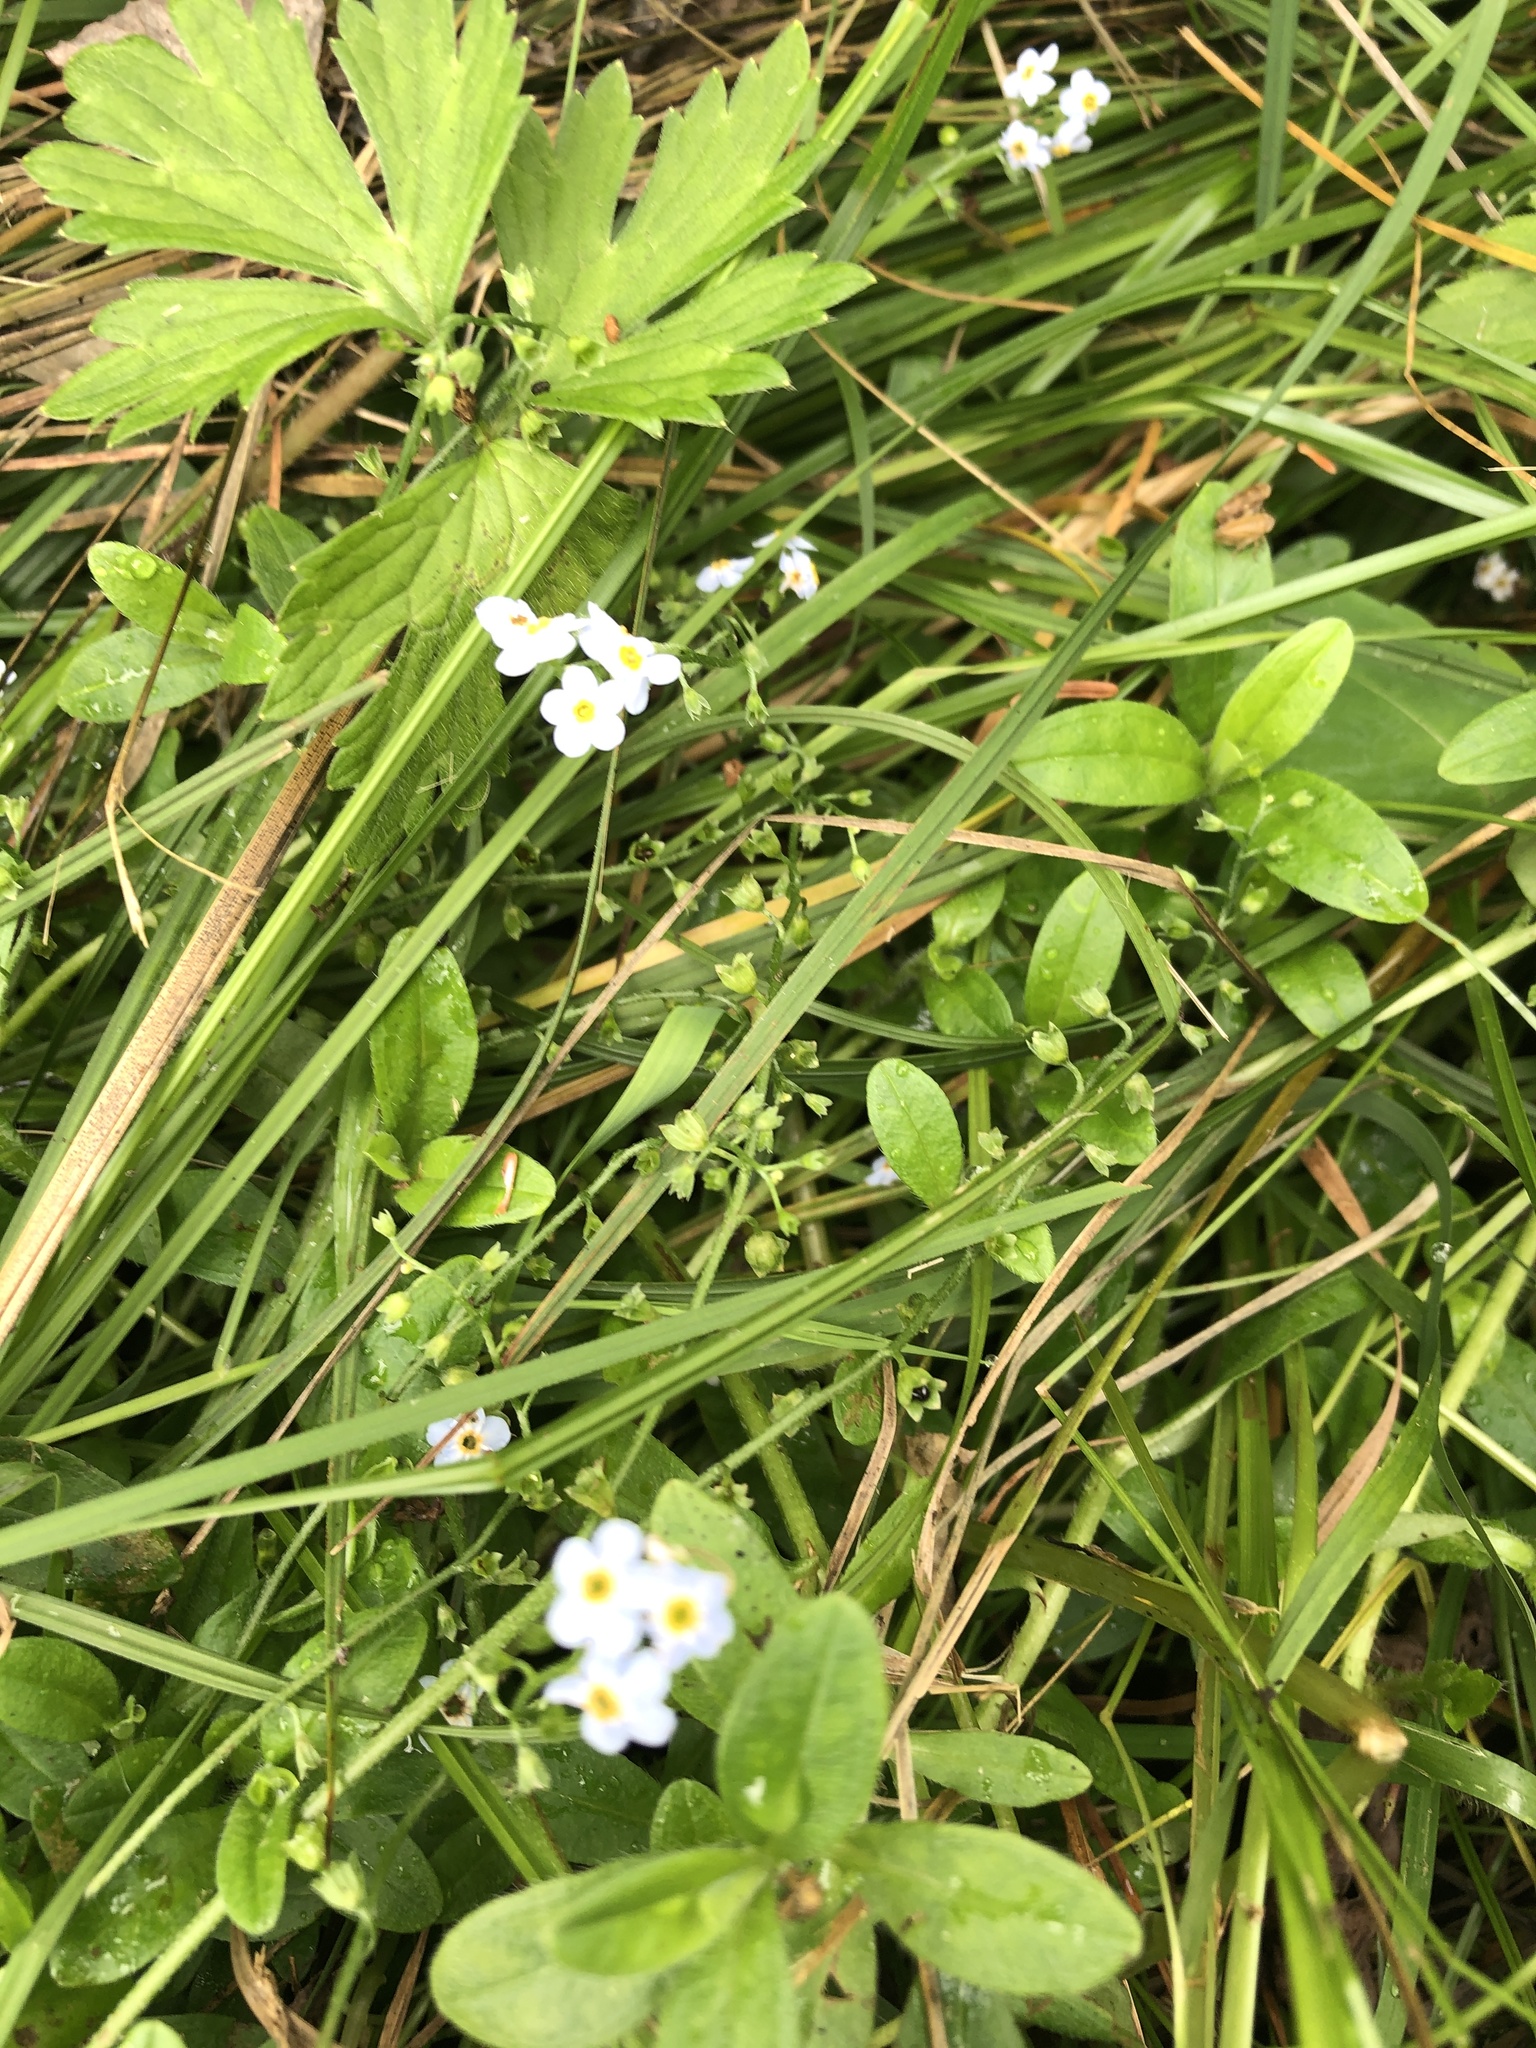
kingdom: Plantae
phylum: Tracheophyta
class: Magnoliopsida
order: Boraginales
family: Boraginaceae
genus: Myosotis
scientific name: Myosotis sylvatica
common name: Wood forget-me-not
